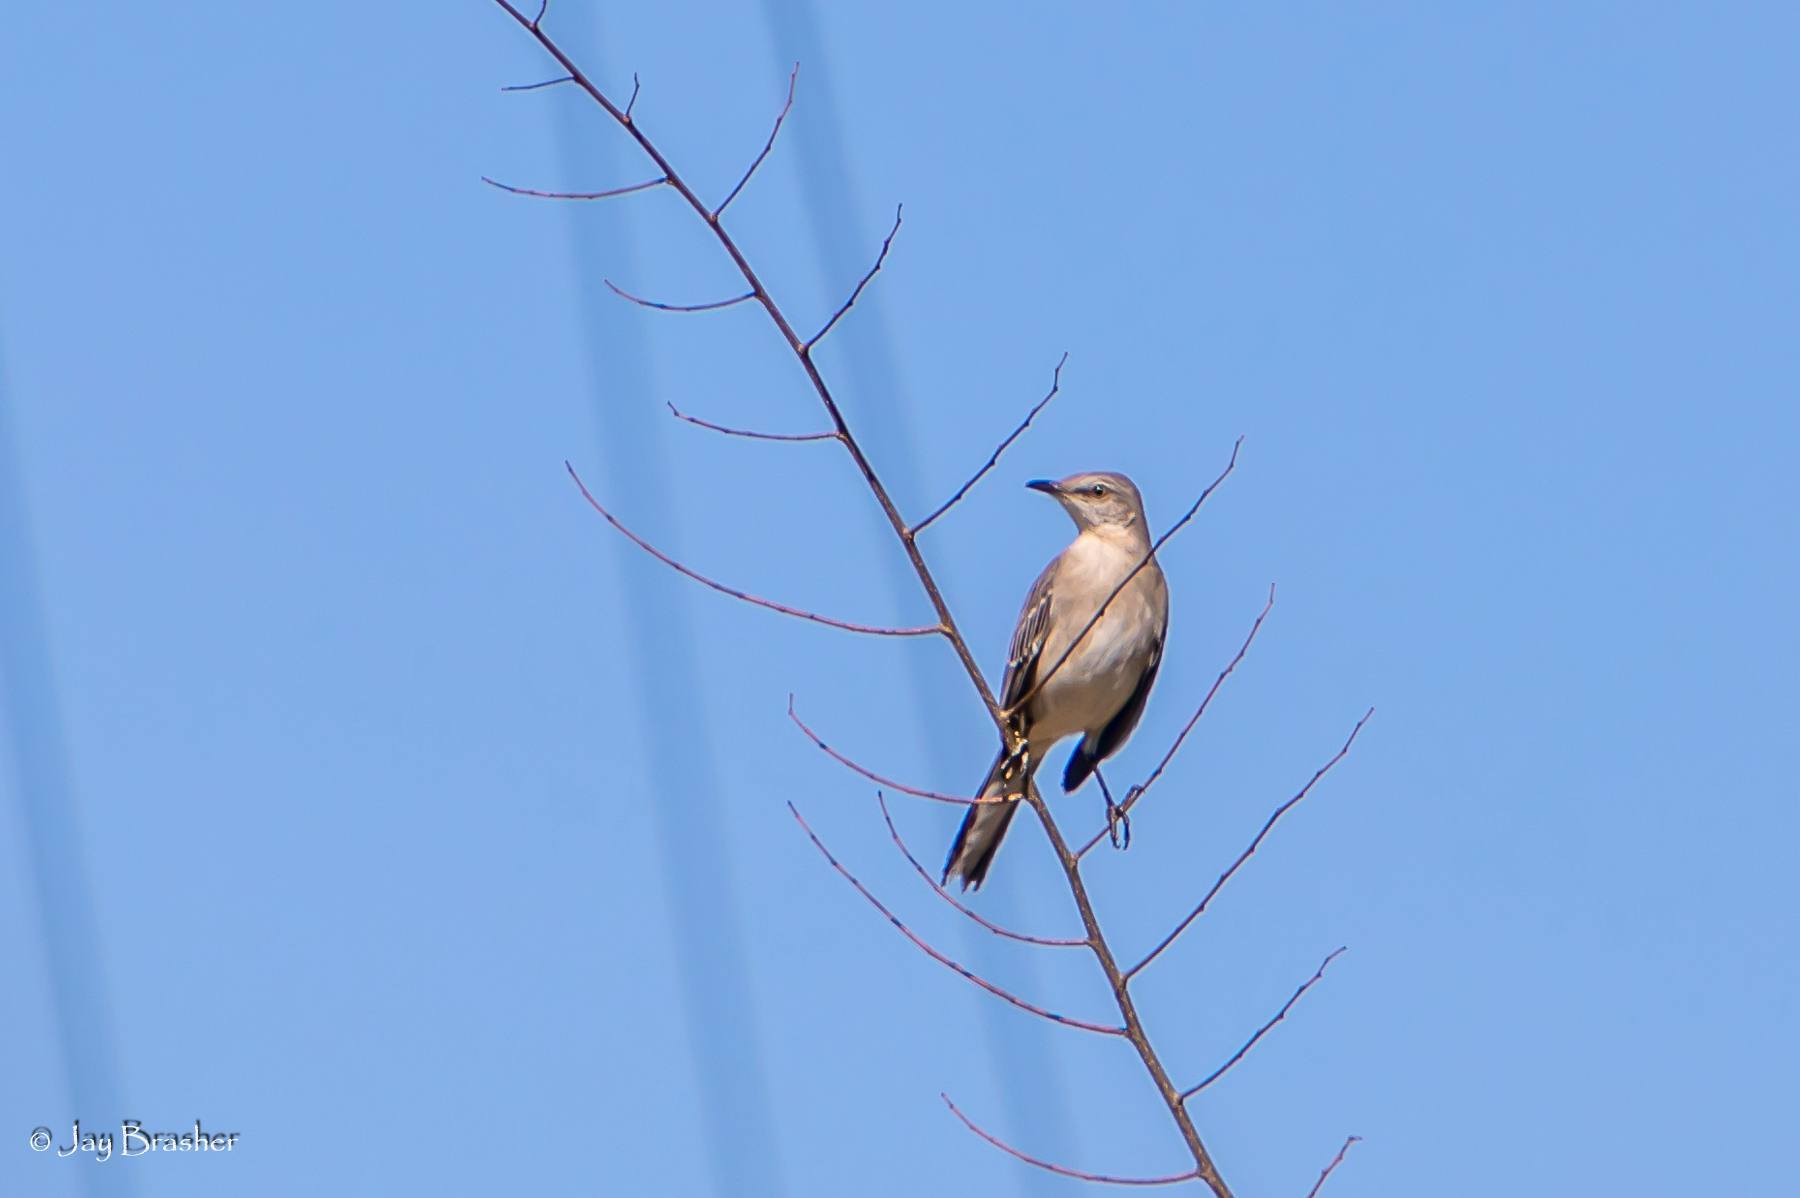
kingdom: Animalia
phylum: Chordata
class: Aves
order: Passeriformes
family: Mimidae
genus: Mimus
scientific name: Mimus polyglottos
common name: Northern mockingbird
